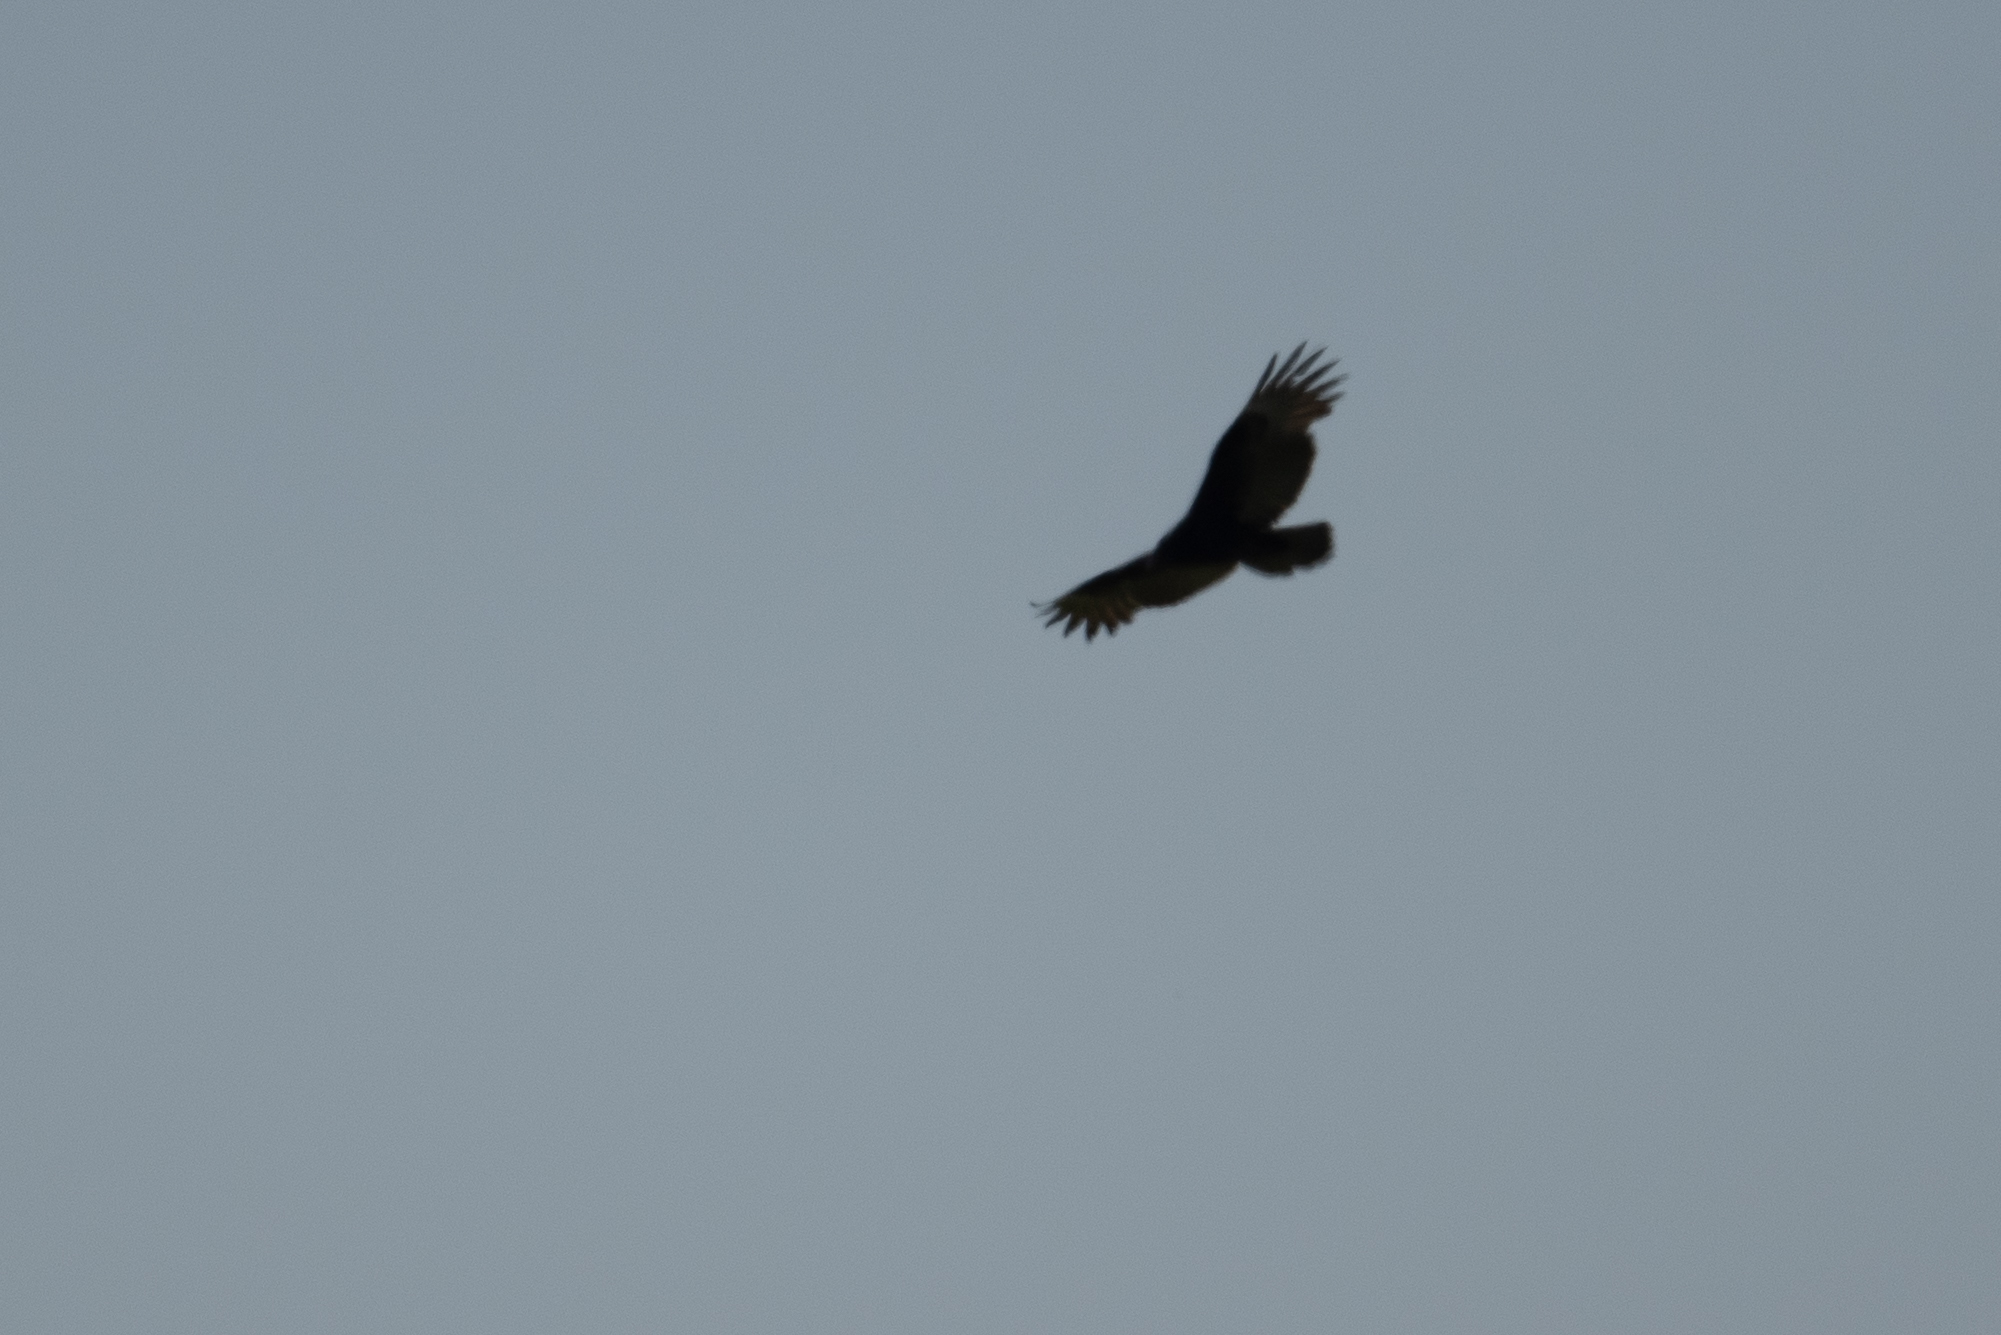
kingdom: Animalia
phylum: Chordata
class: Aves
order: Accipitriformes
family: Cathartidae
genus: Cathartes
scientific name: Cathartes aura
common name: Turkey vulture
